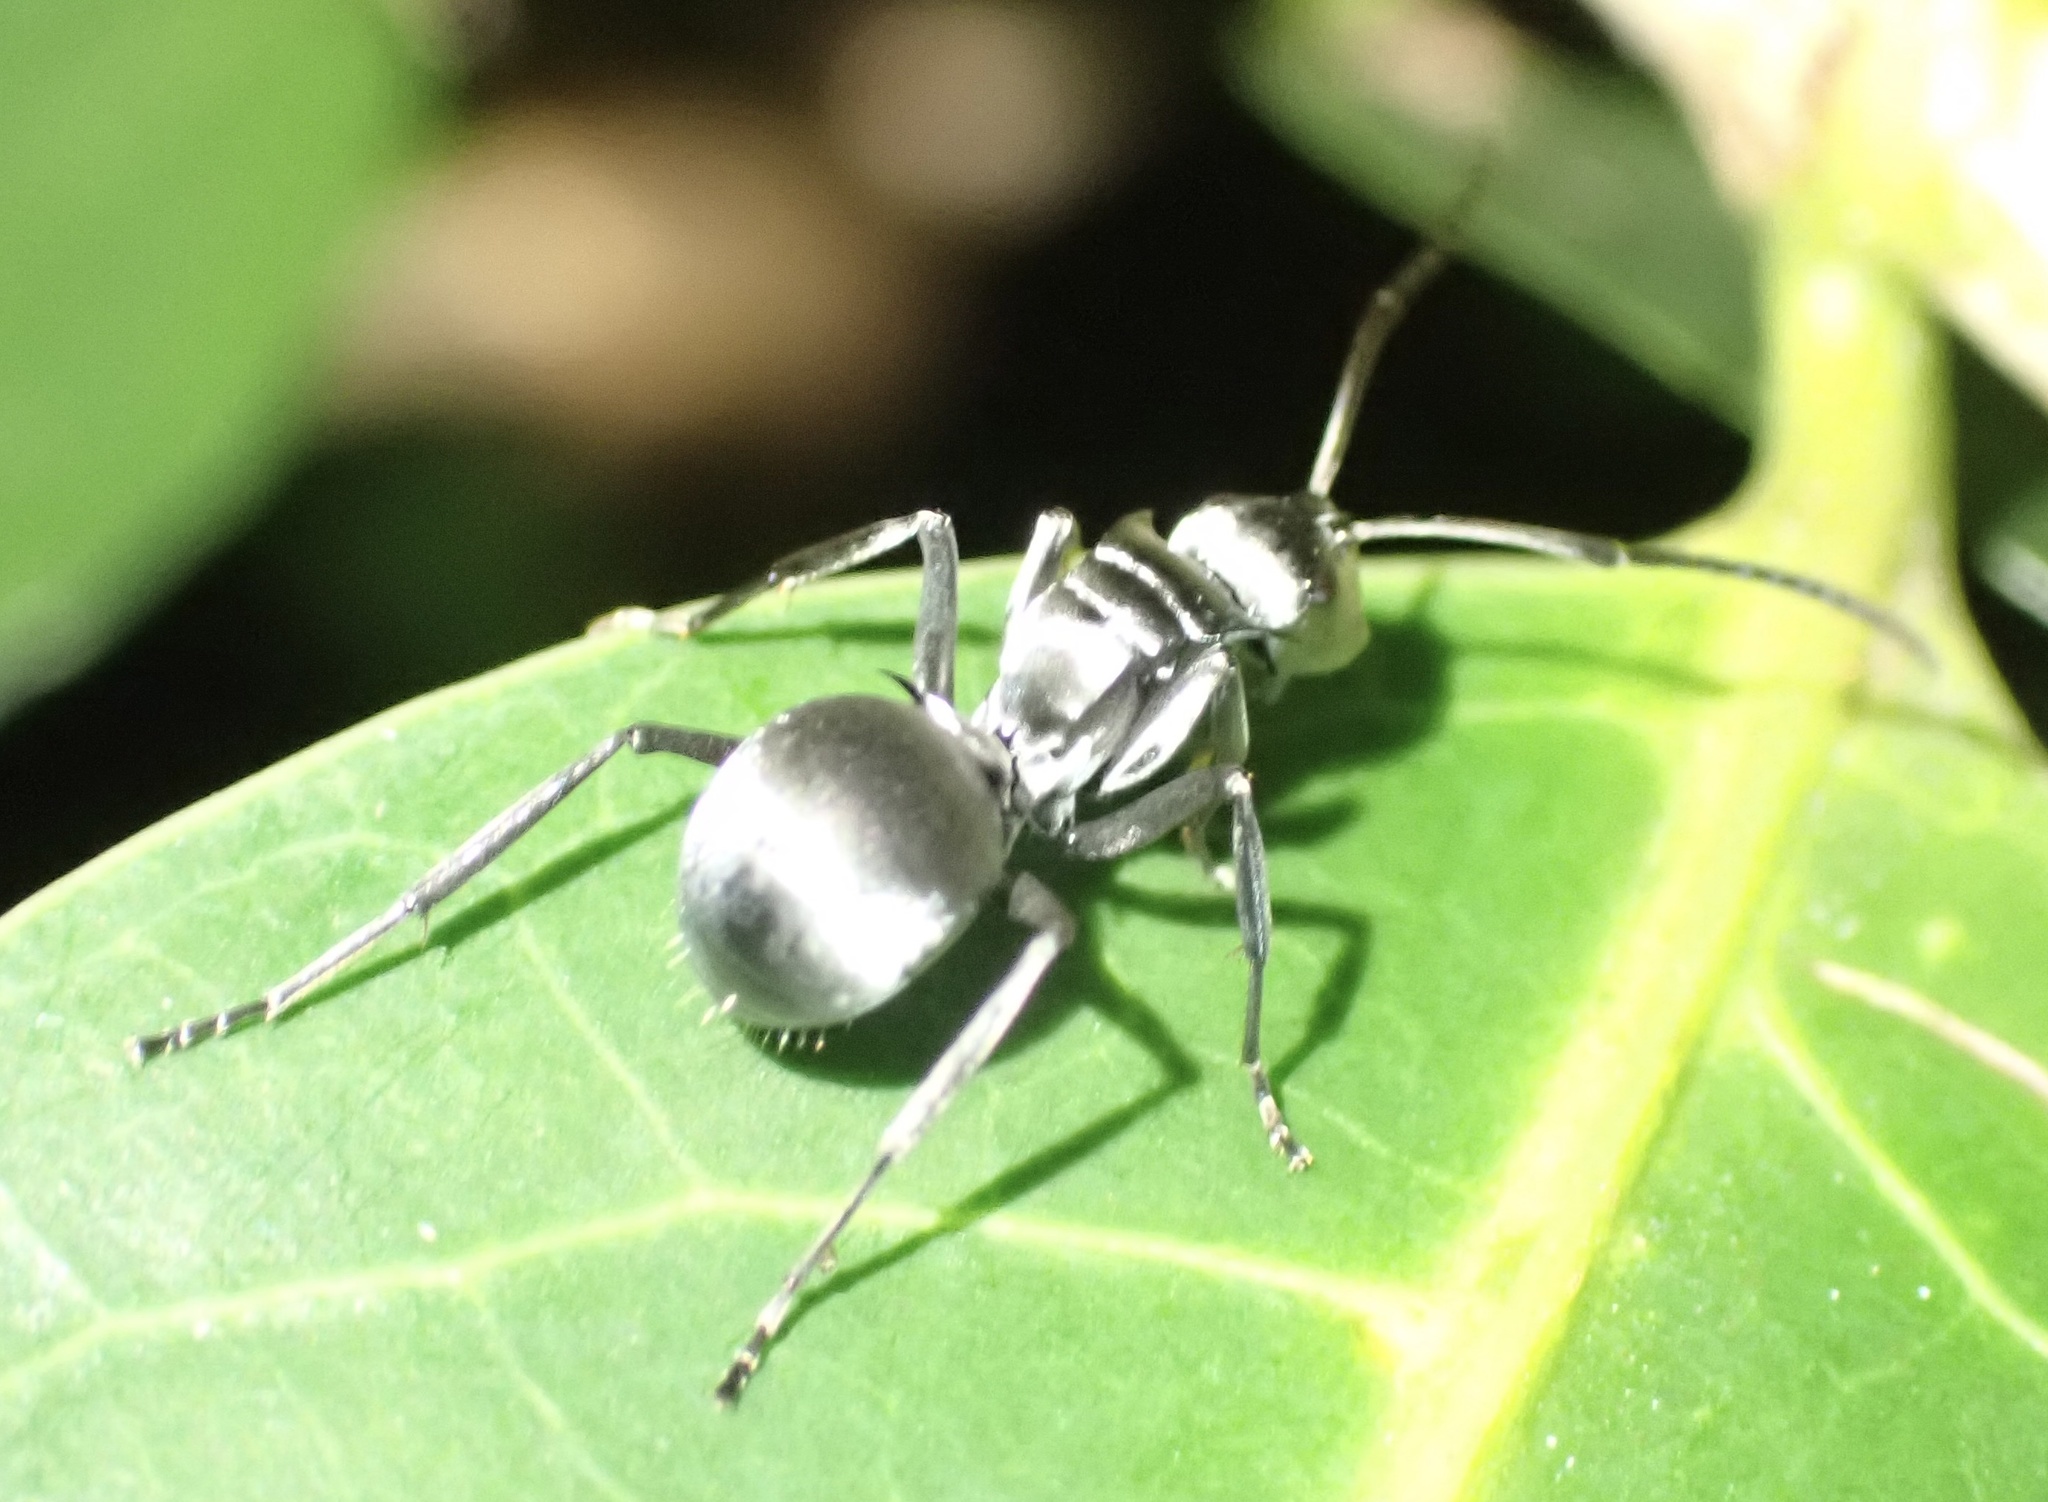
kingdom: Animalia
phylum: Arthropoda
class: Insecta
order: Hymenoptera
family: Formicidae
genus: Polyrhachis
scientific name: Polyrhachis schlueteri
